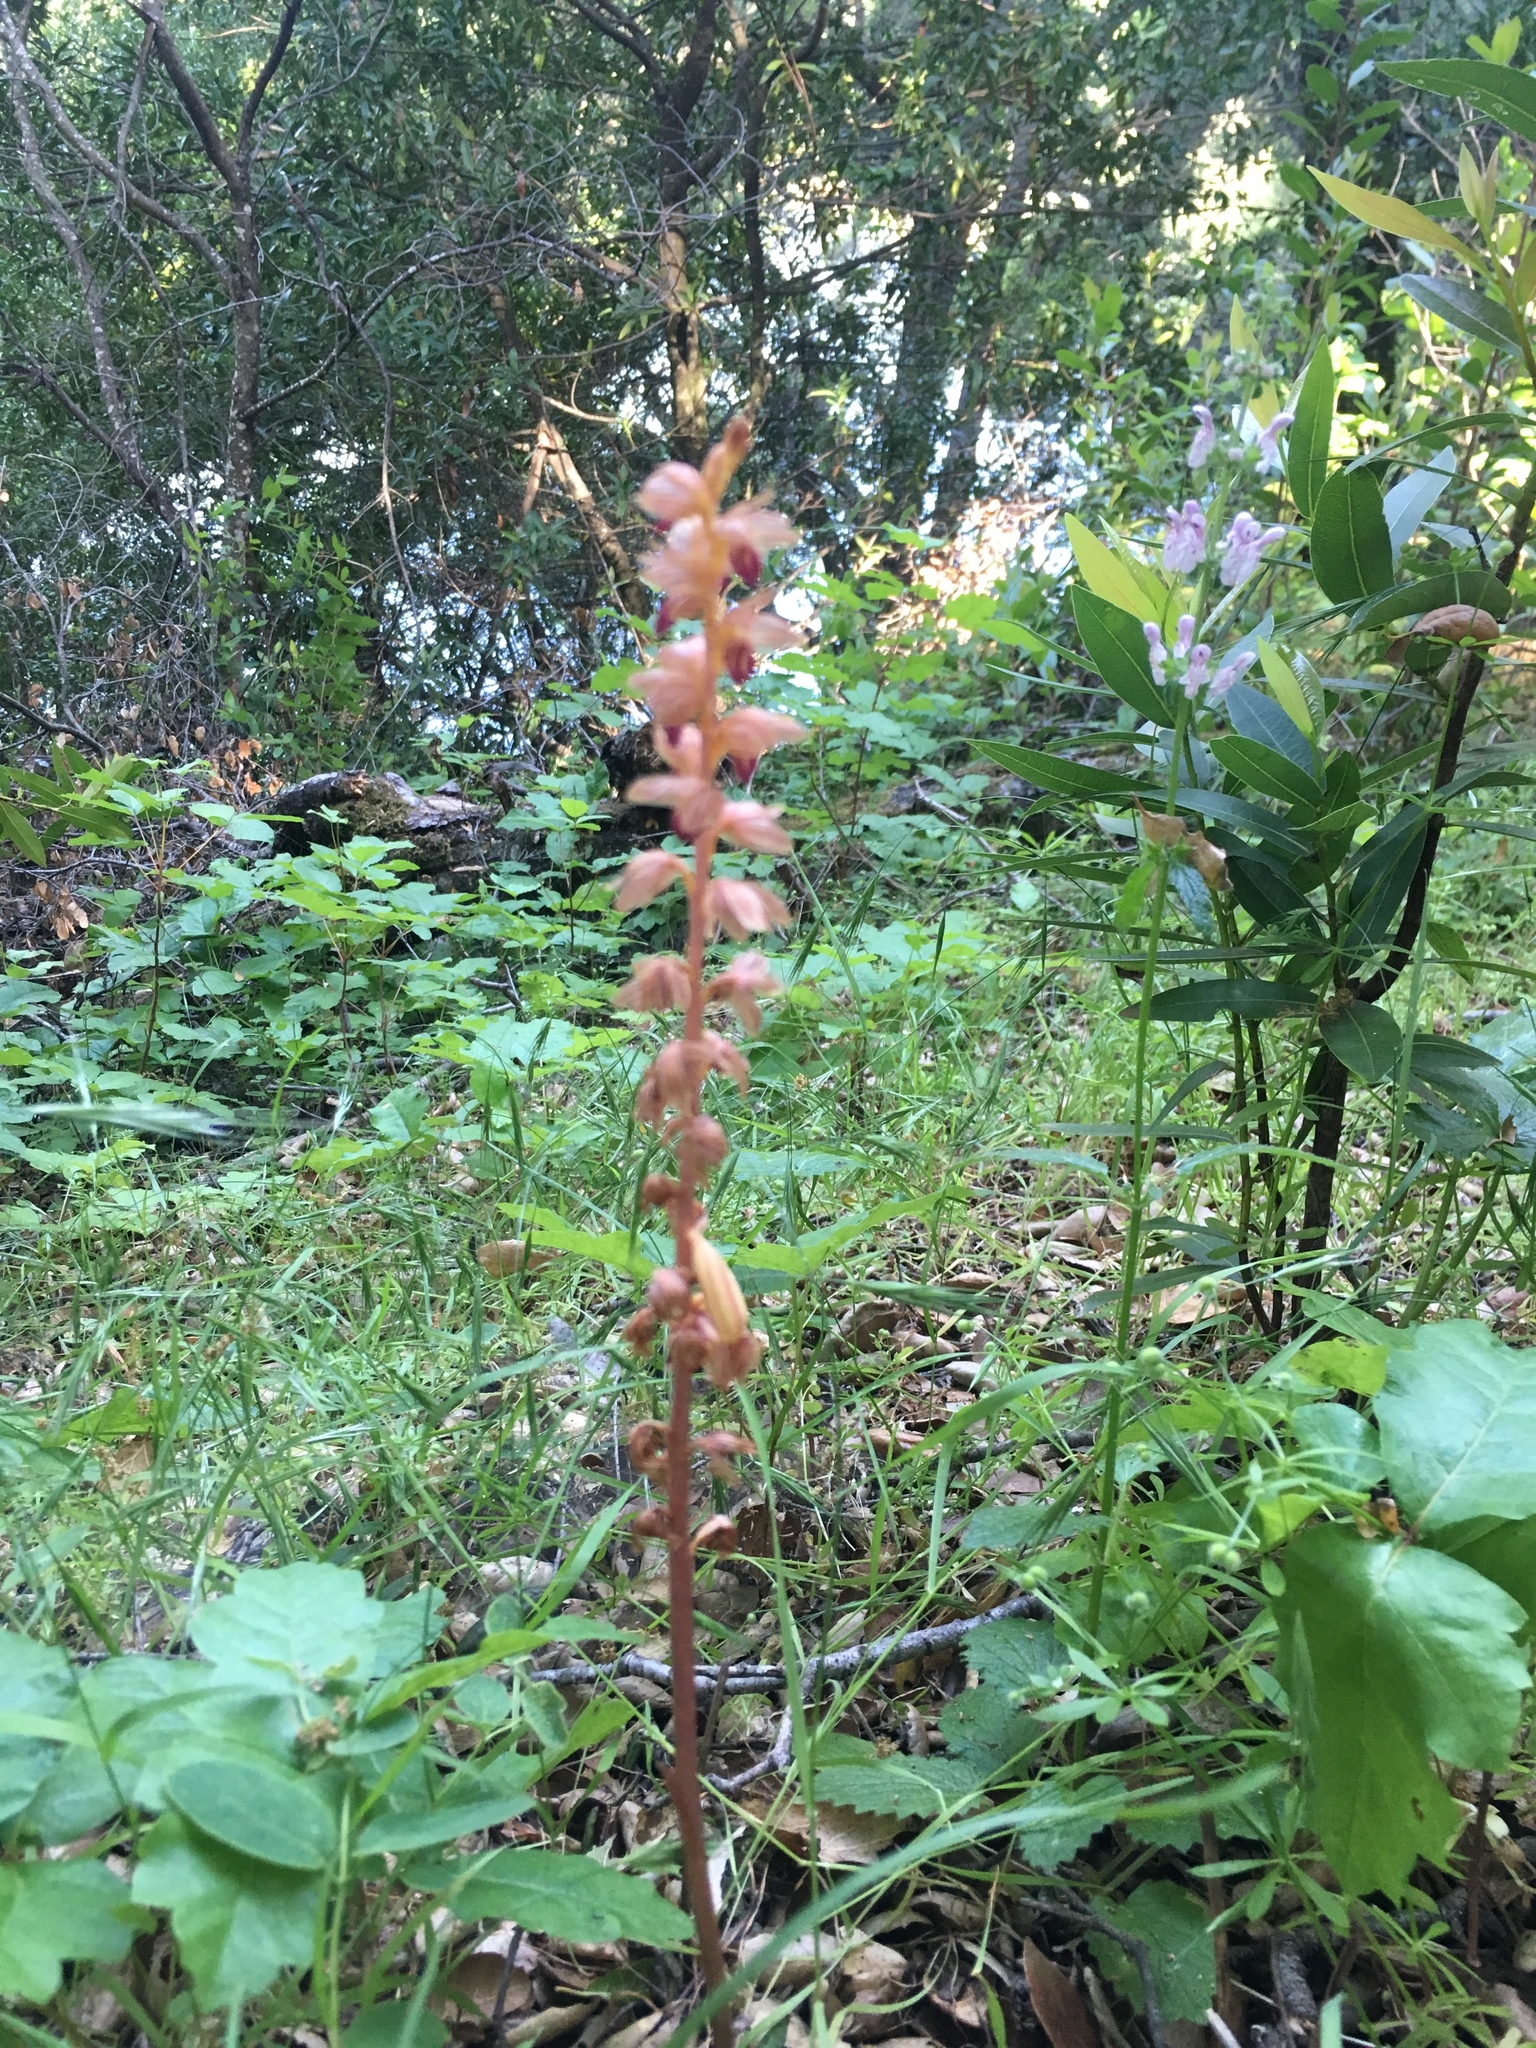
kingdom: Plantae
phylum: Tracheophyta
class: Liliopsida
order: Asparagales
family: Orchidaceae
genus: Corallorhiza
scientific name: Corallorhiza striata
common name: Hooded coralroot
